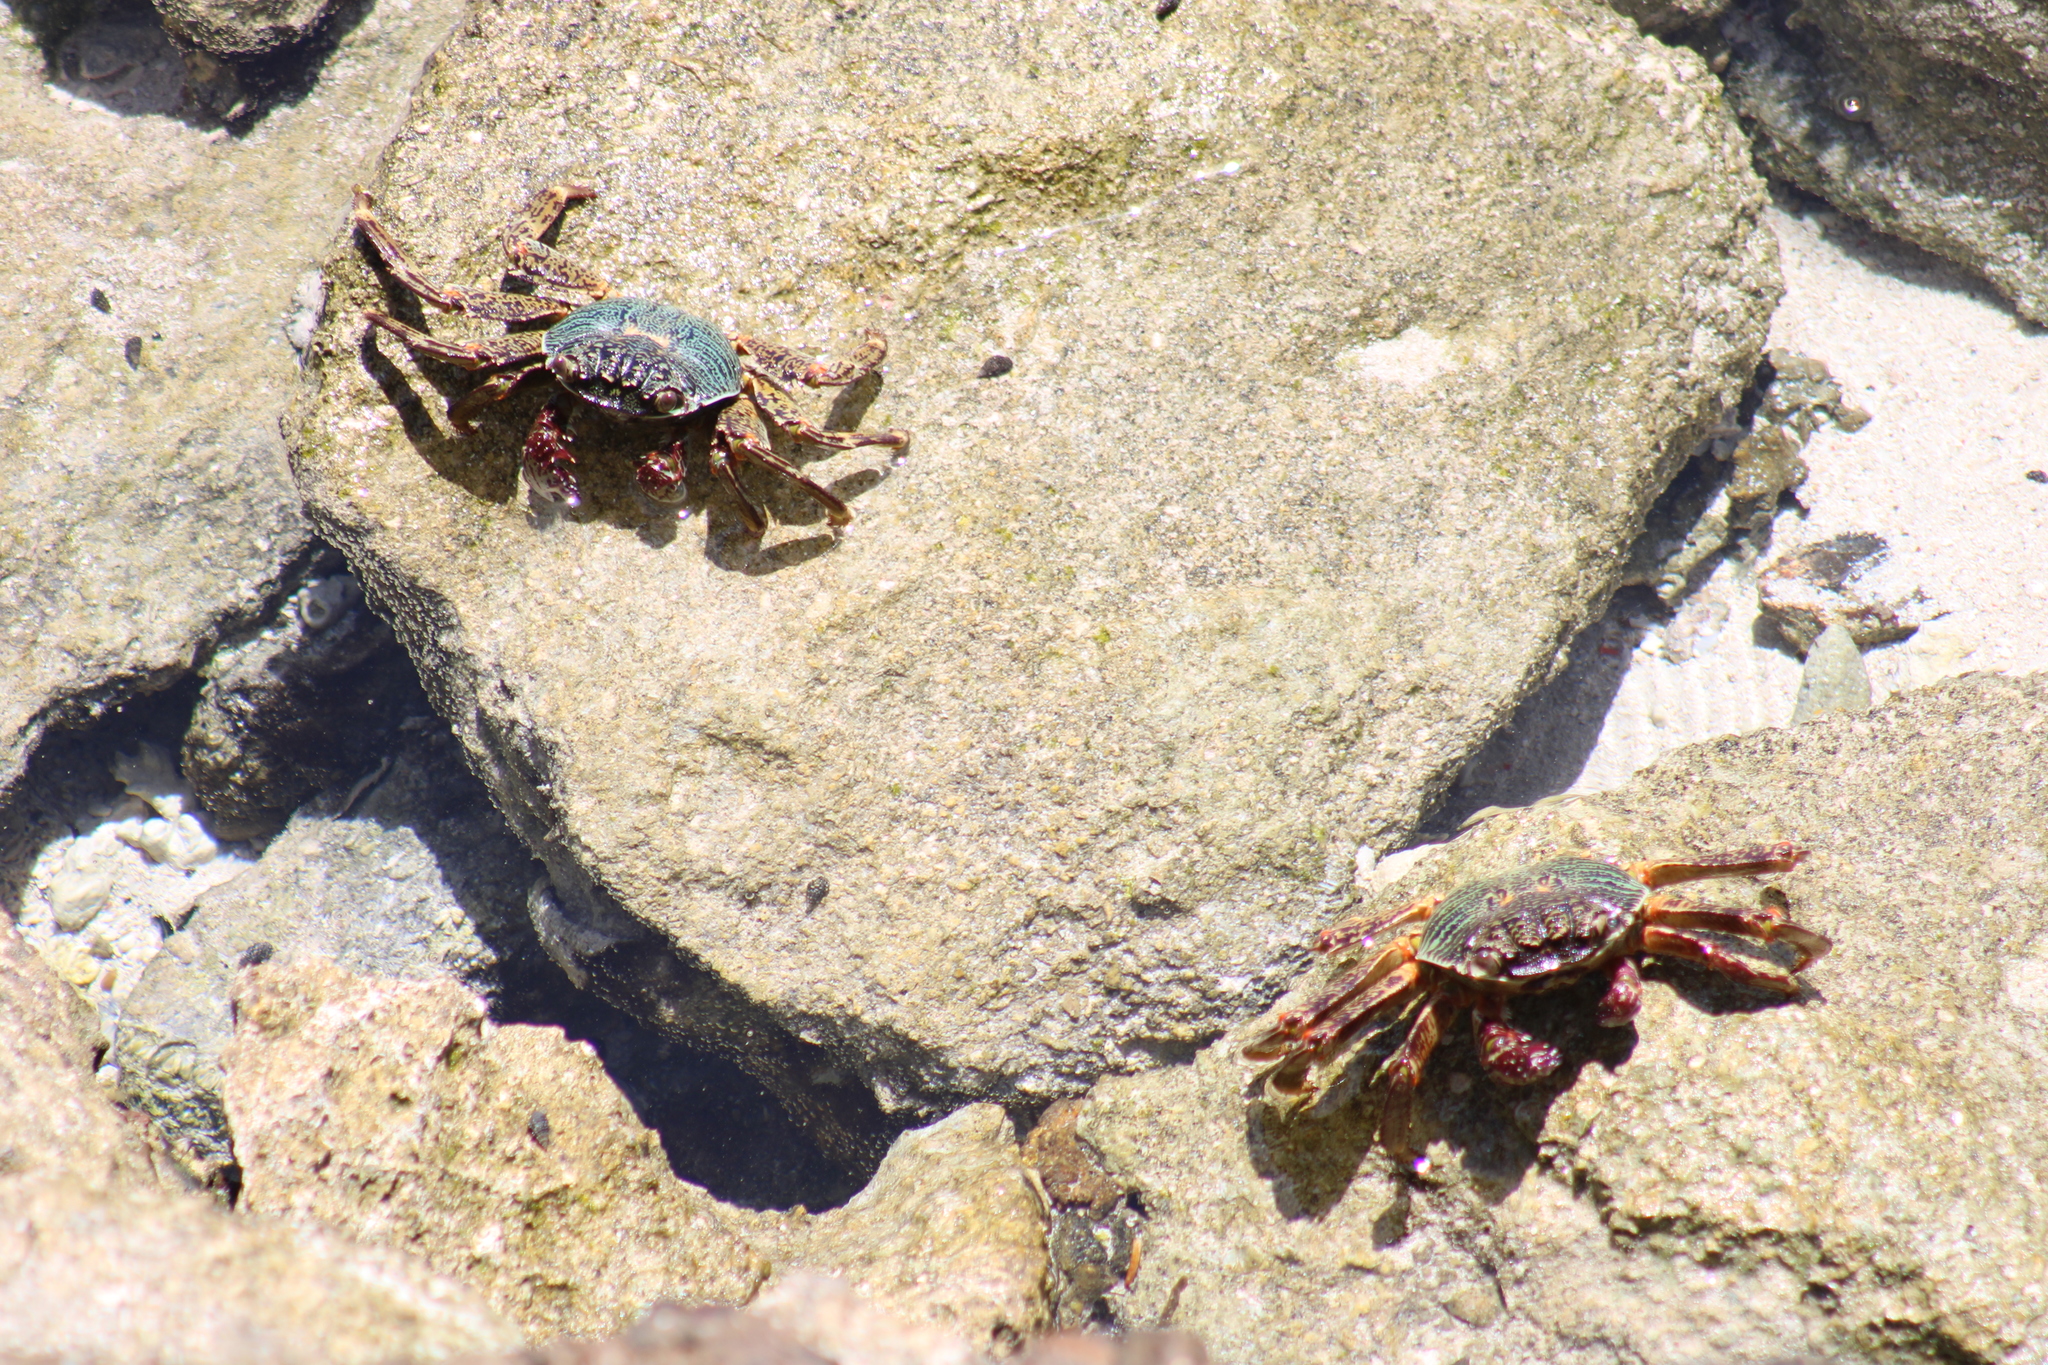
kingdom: Animalia
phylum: Arthropoda
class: Malacostraca
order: Decapoda
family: Grapsidae
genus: Grapsus
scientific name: Grapsus albolineatus
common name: Mottled lightfoot crab
